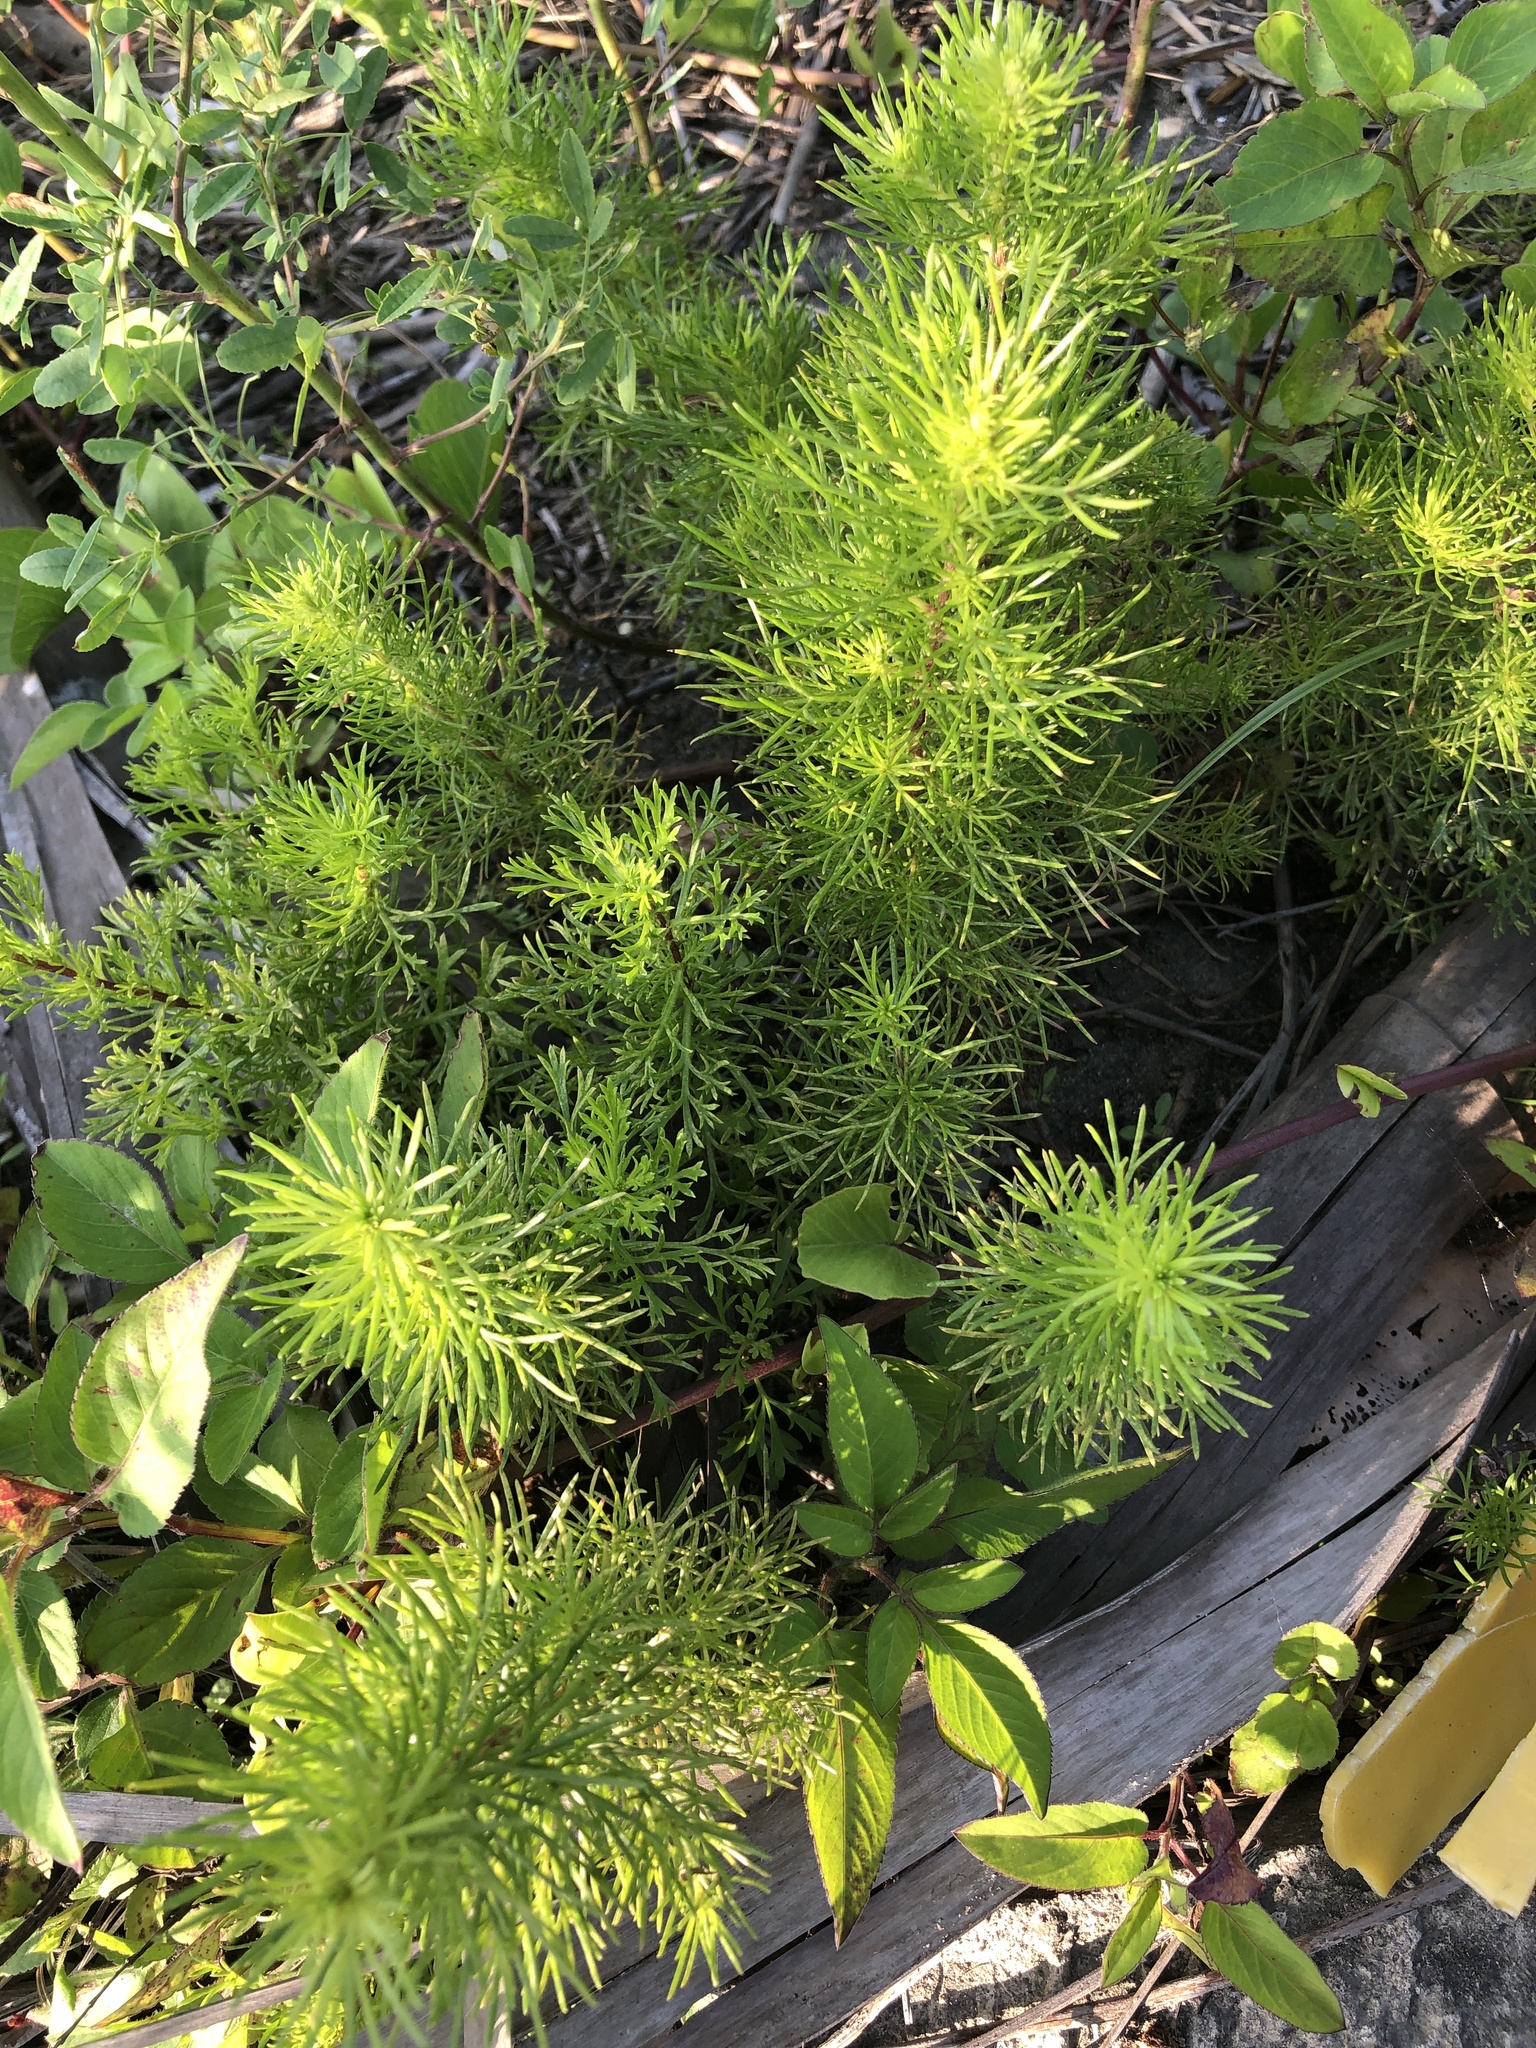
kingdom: Plantae
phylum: Tracheophyta
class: Magnoliopsida
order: Asterales
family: Asteraceae
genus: Artemisia
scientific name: Artemisia capillaris
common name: Yin-chen wormwood
